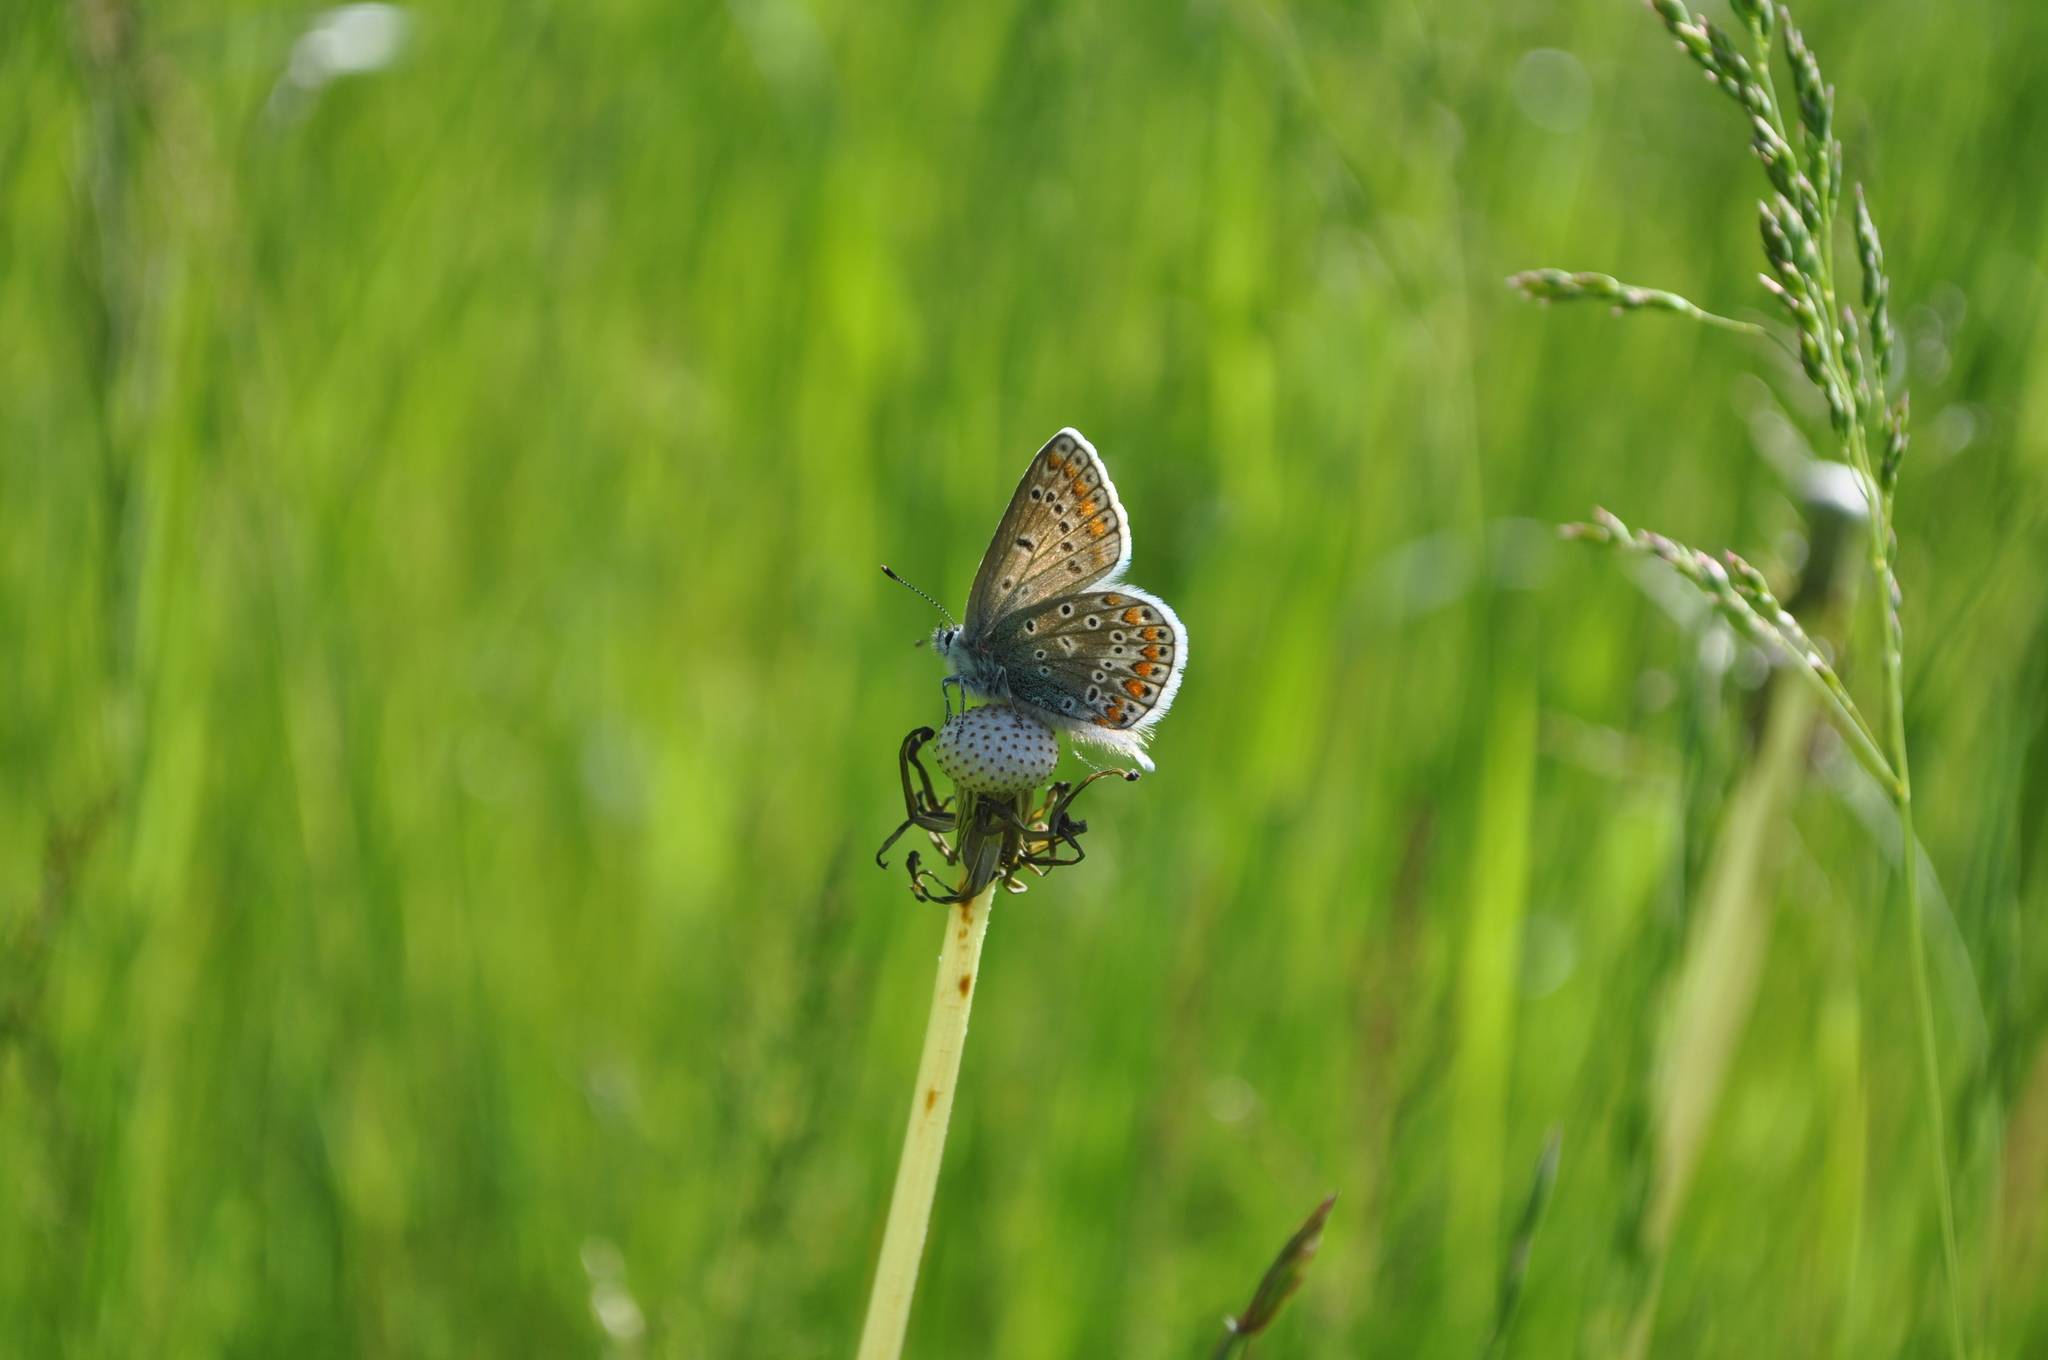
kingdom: Animalia
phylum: Arthropoda
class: Insecta
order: Lepidoptera
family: Lycaenidae
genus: Polyommatus
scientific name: Polyommatus icarus
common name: Common blue
